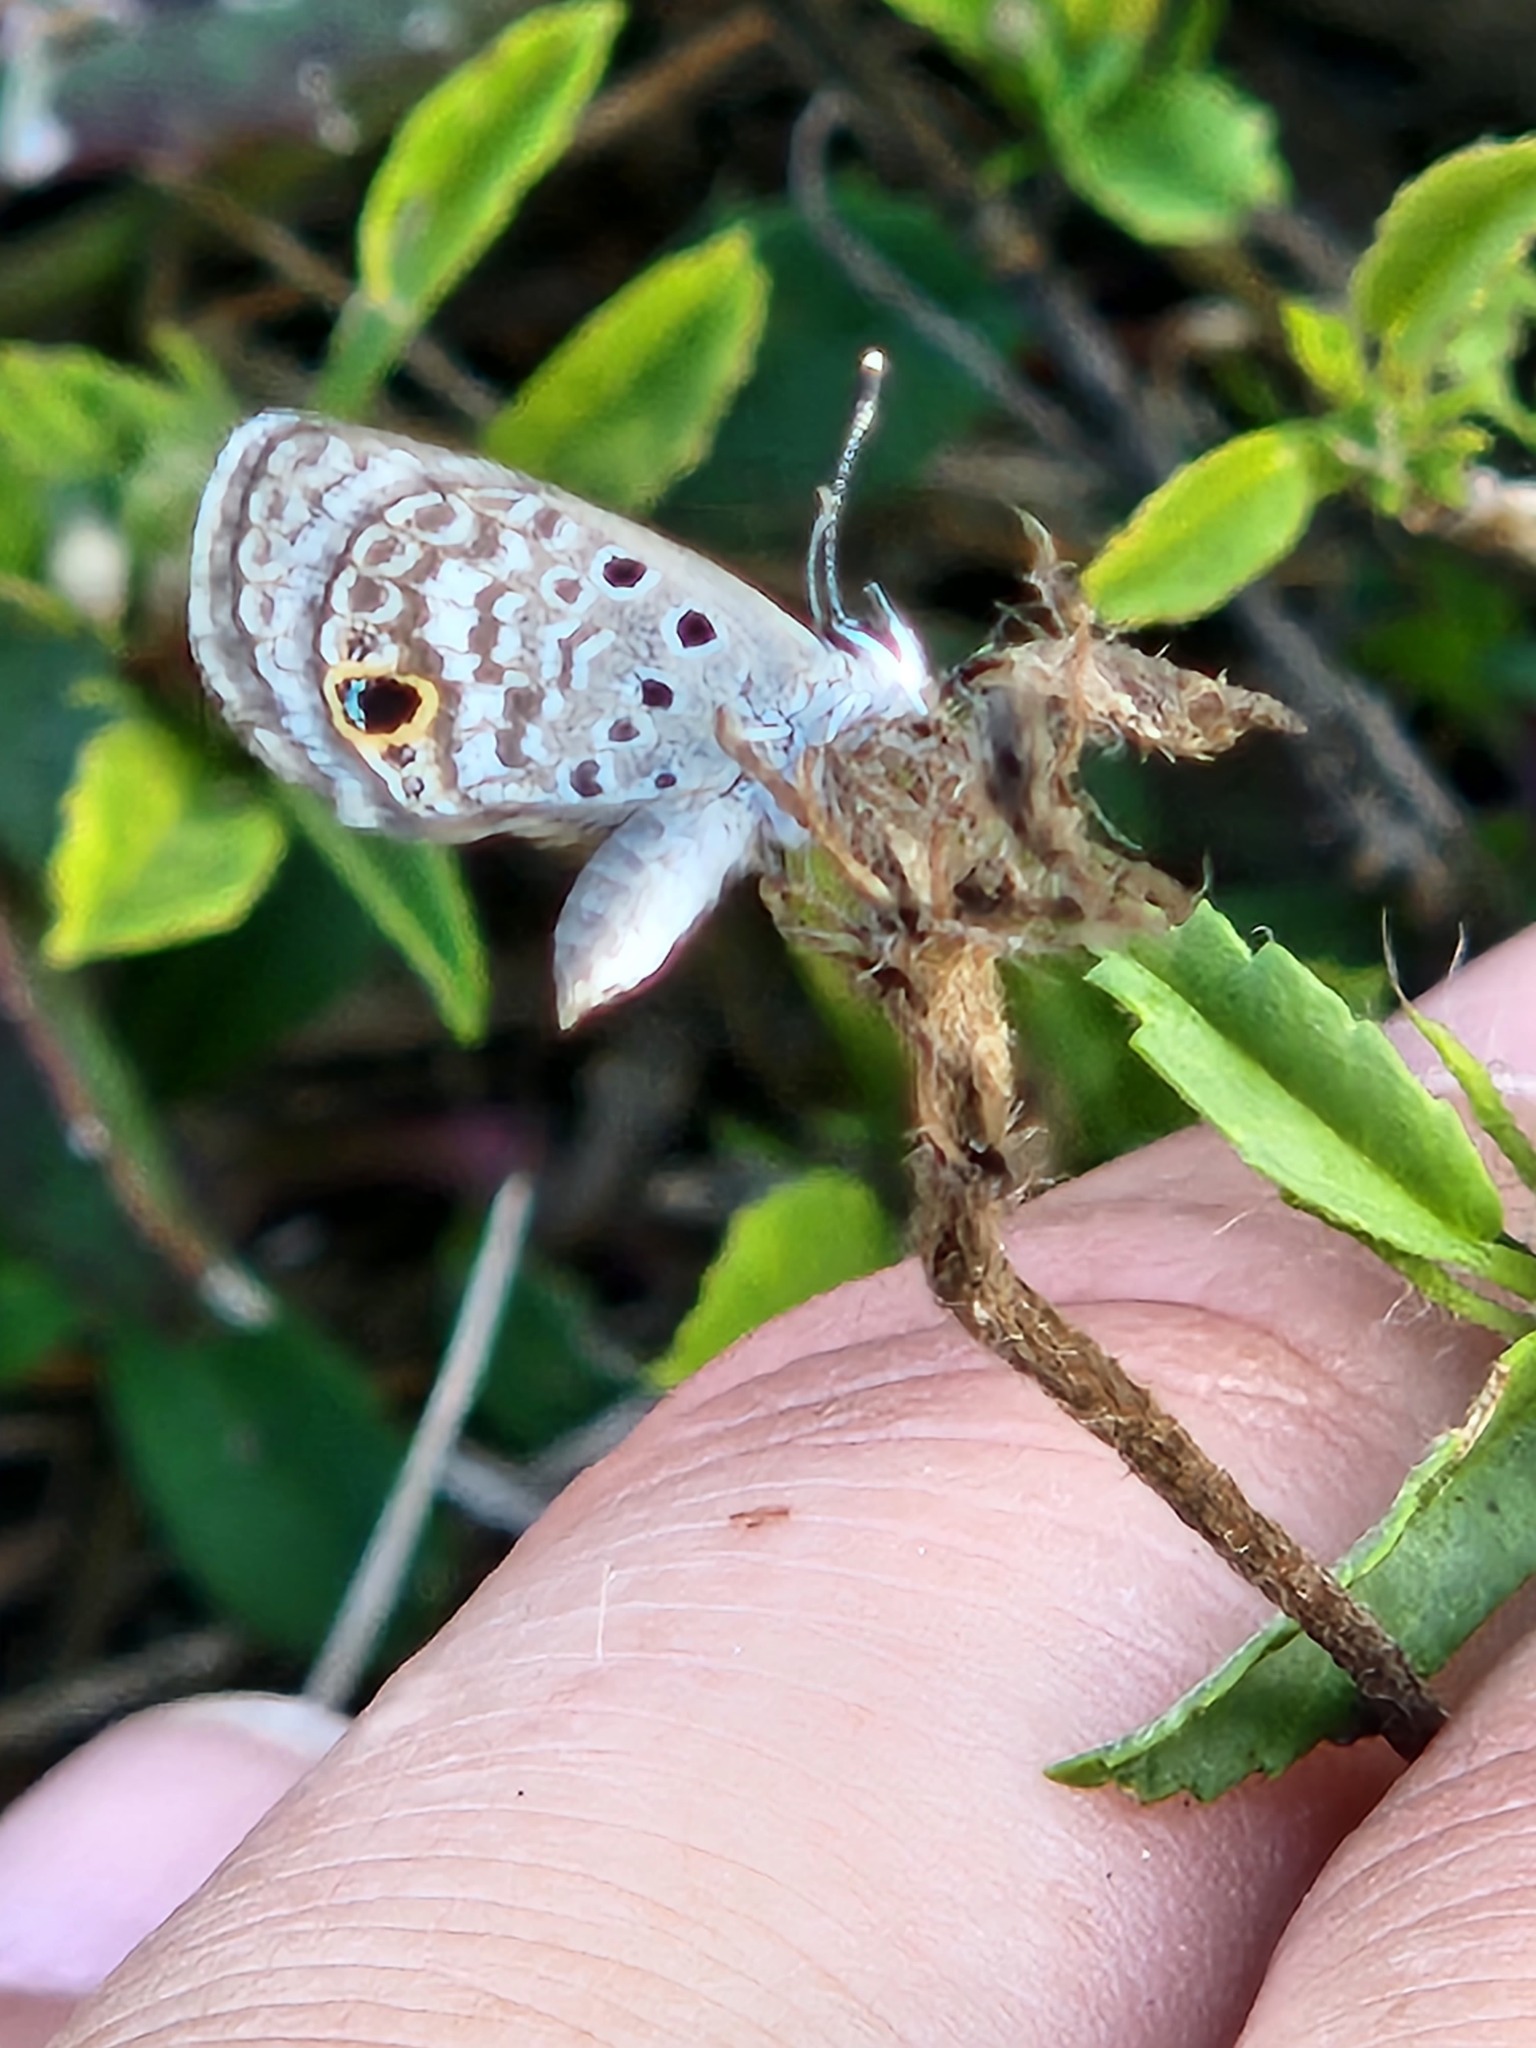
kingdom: Animalia
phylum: Arthropoda
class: Insecta
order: Lepidoptera
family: Lycaenidae
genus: Hemiargus
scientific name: Hemiargus ceraunus
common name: Ceraunus blue
